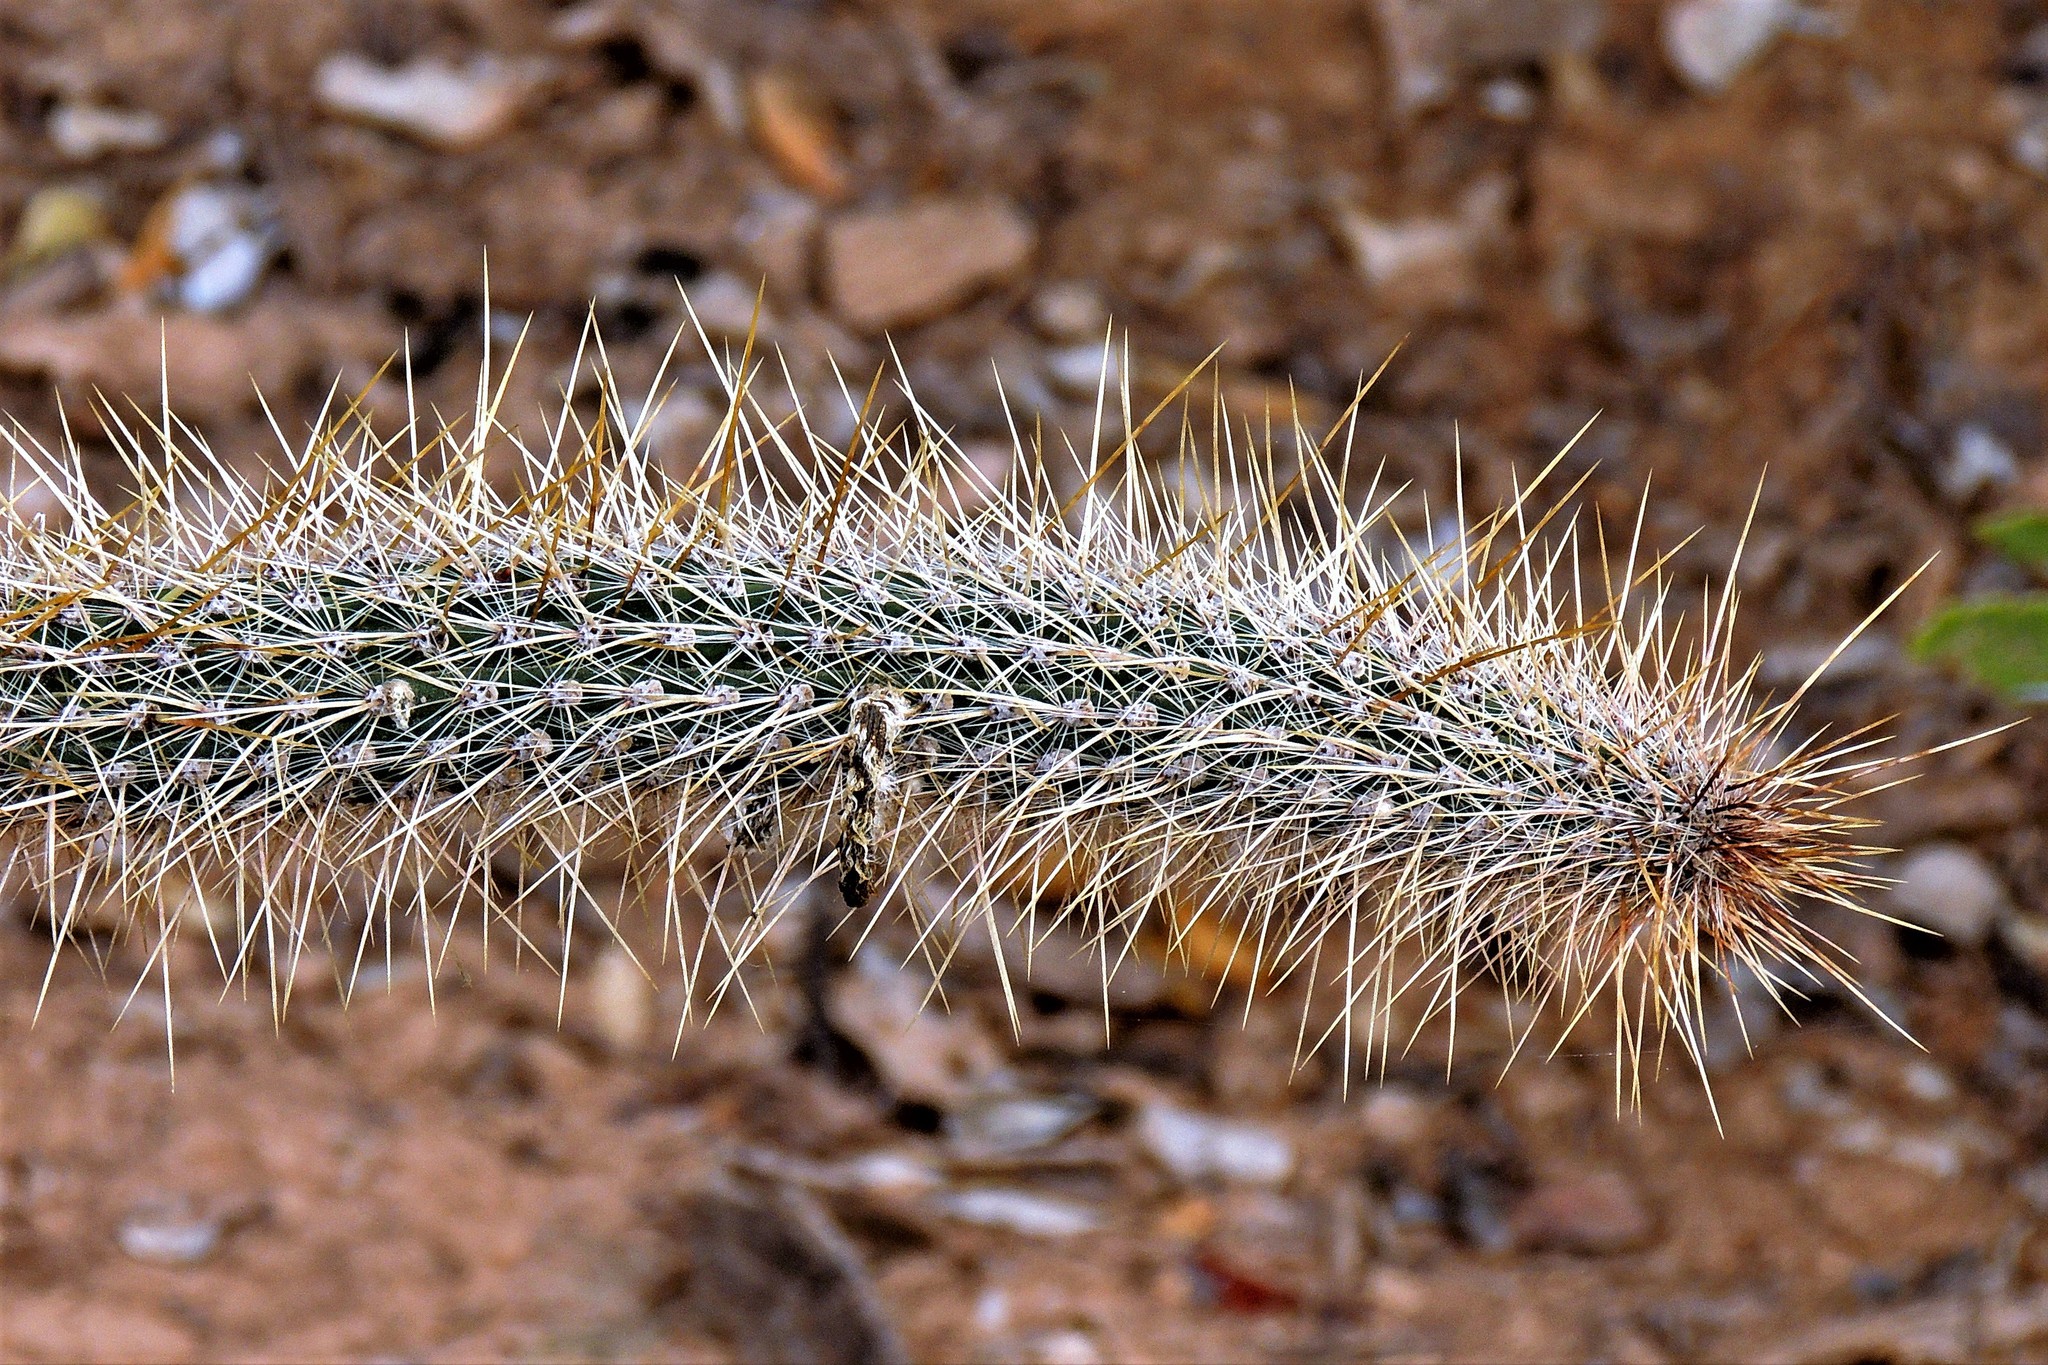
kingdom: Plantae
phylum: Tracheophyta
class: Magnoliopsida
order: Caryophyllales
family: Cactaceae
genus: Cleistocactus
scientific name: Cleistocactus baumannii
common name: Scarlet-bugler
